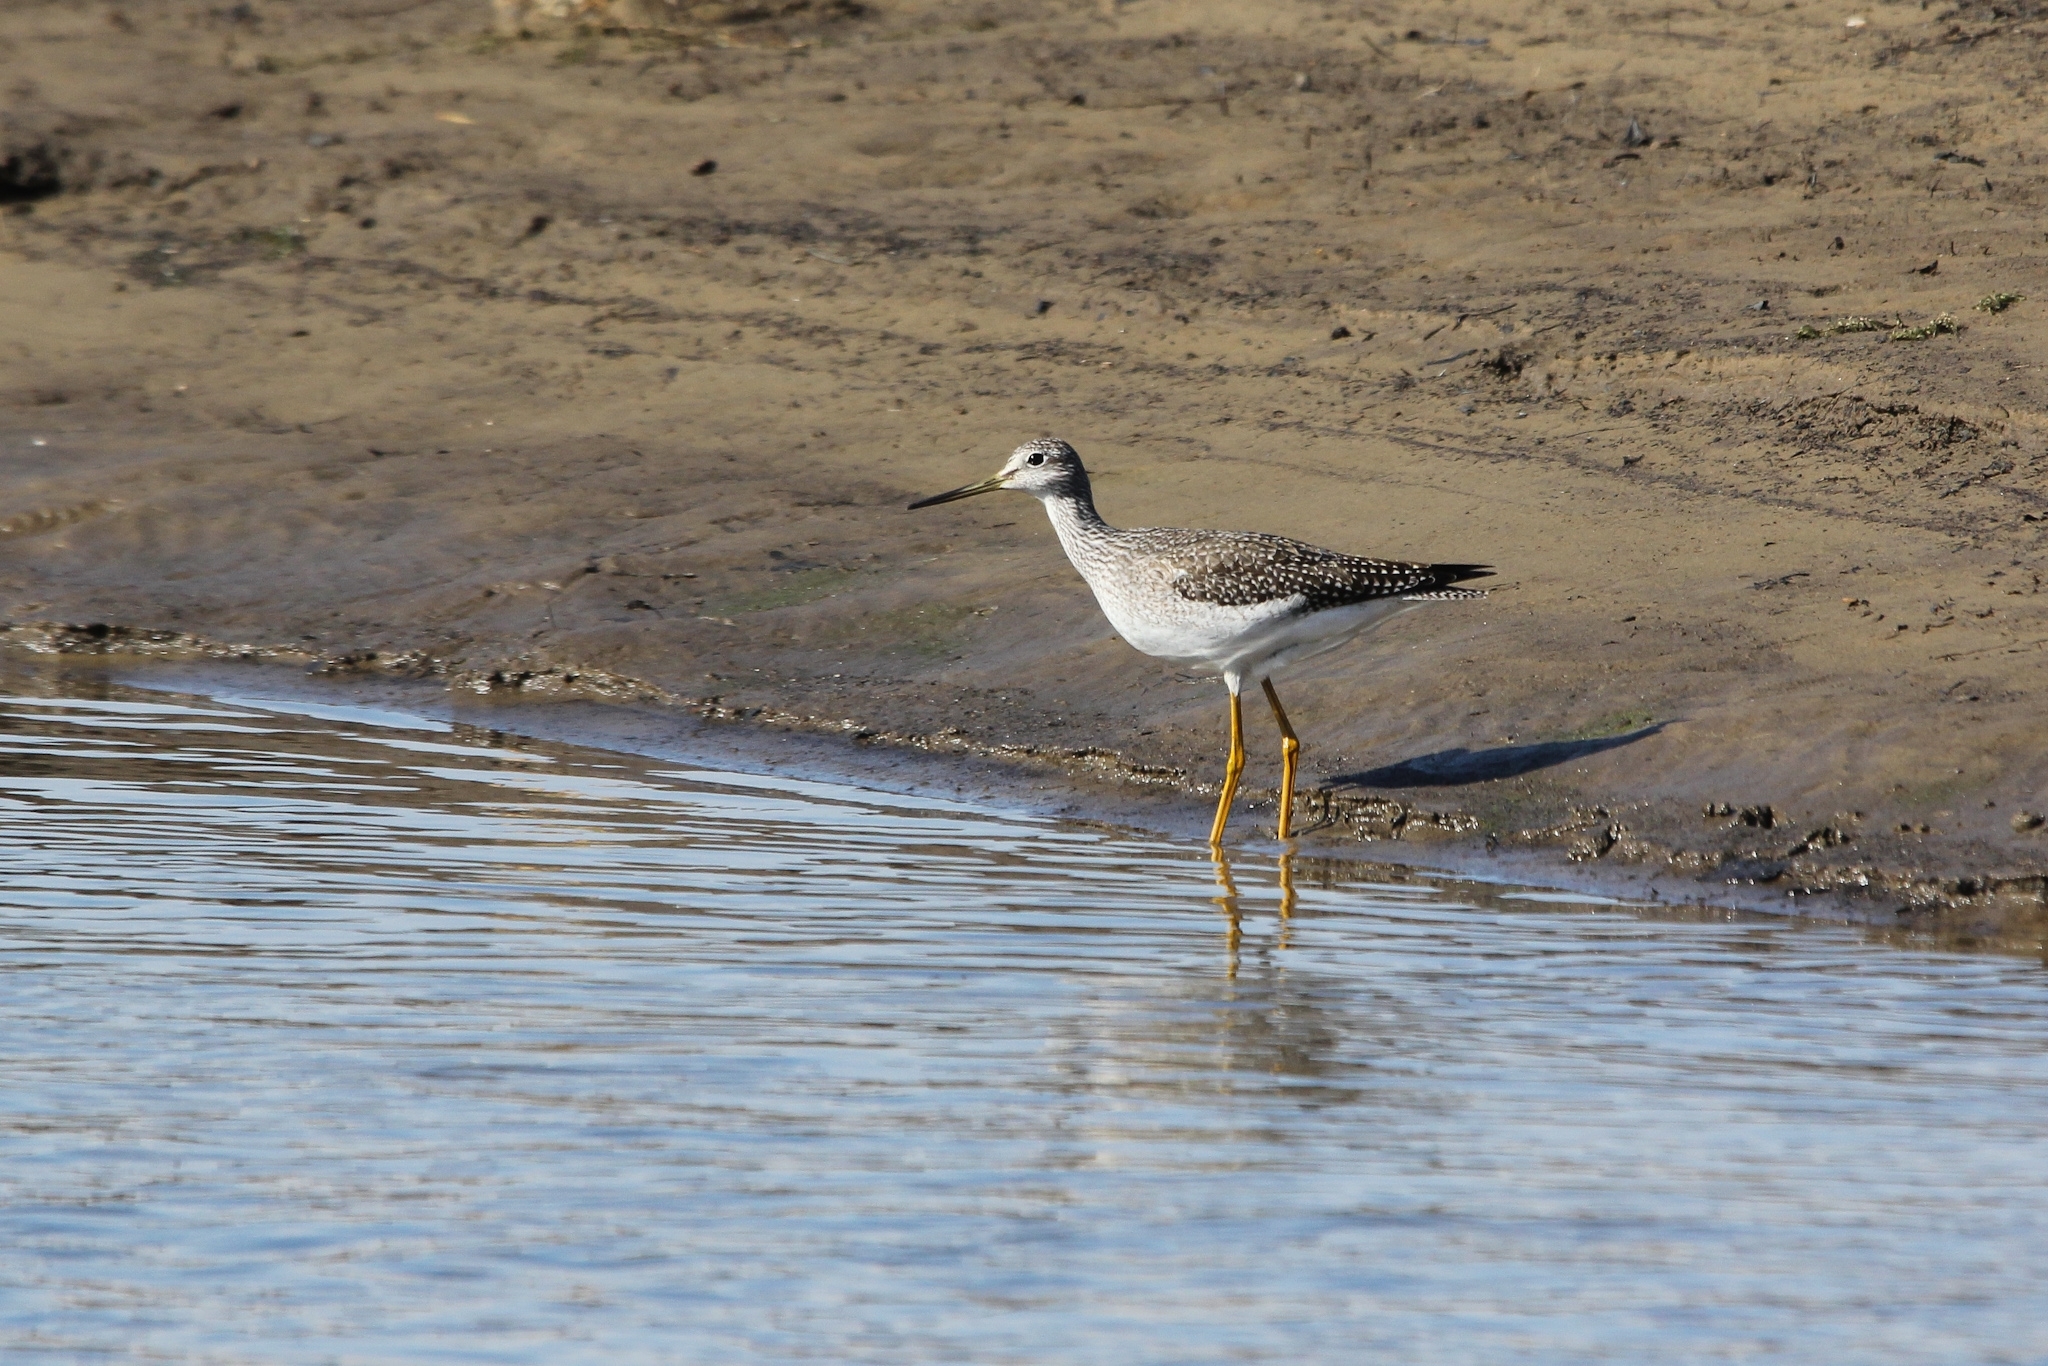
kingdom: Animalia
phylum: Chordata
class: Aves
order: Charadriiformes
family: Scolopacidae
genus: Tringa
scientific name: Tringa melanoleuca
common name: Greater yellowlegs
